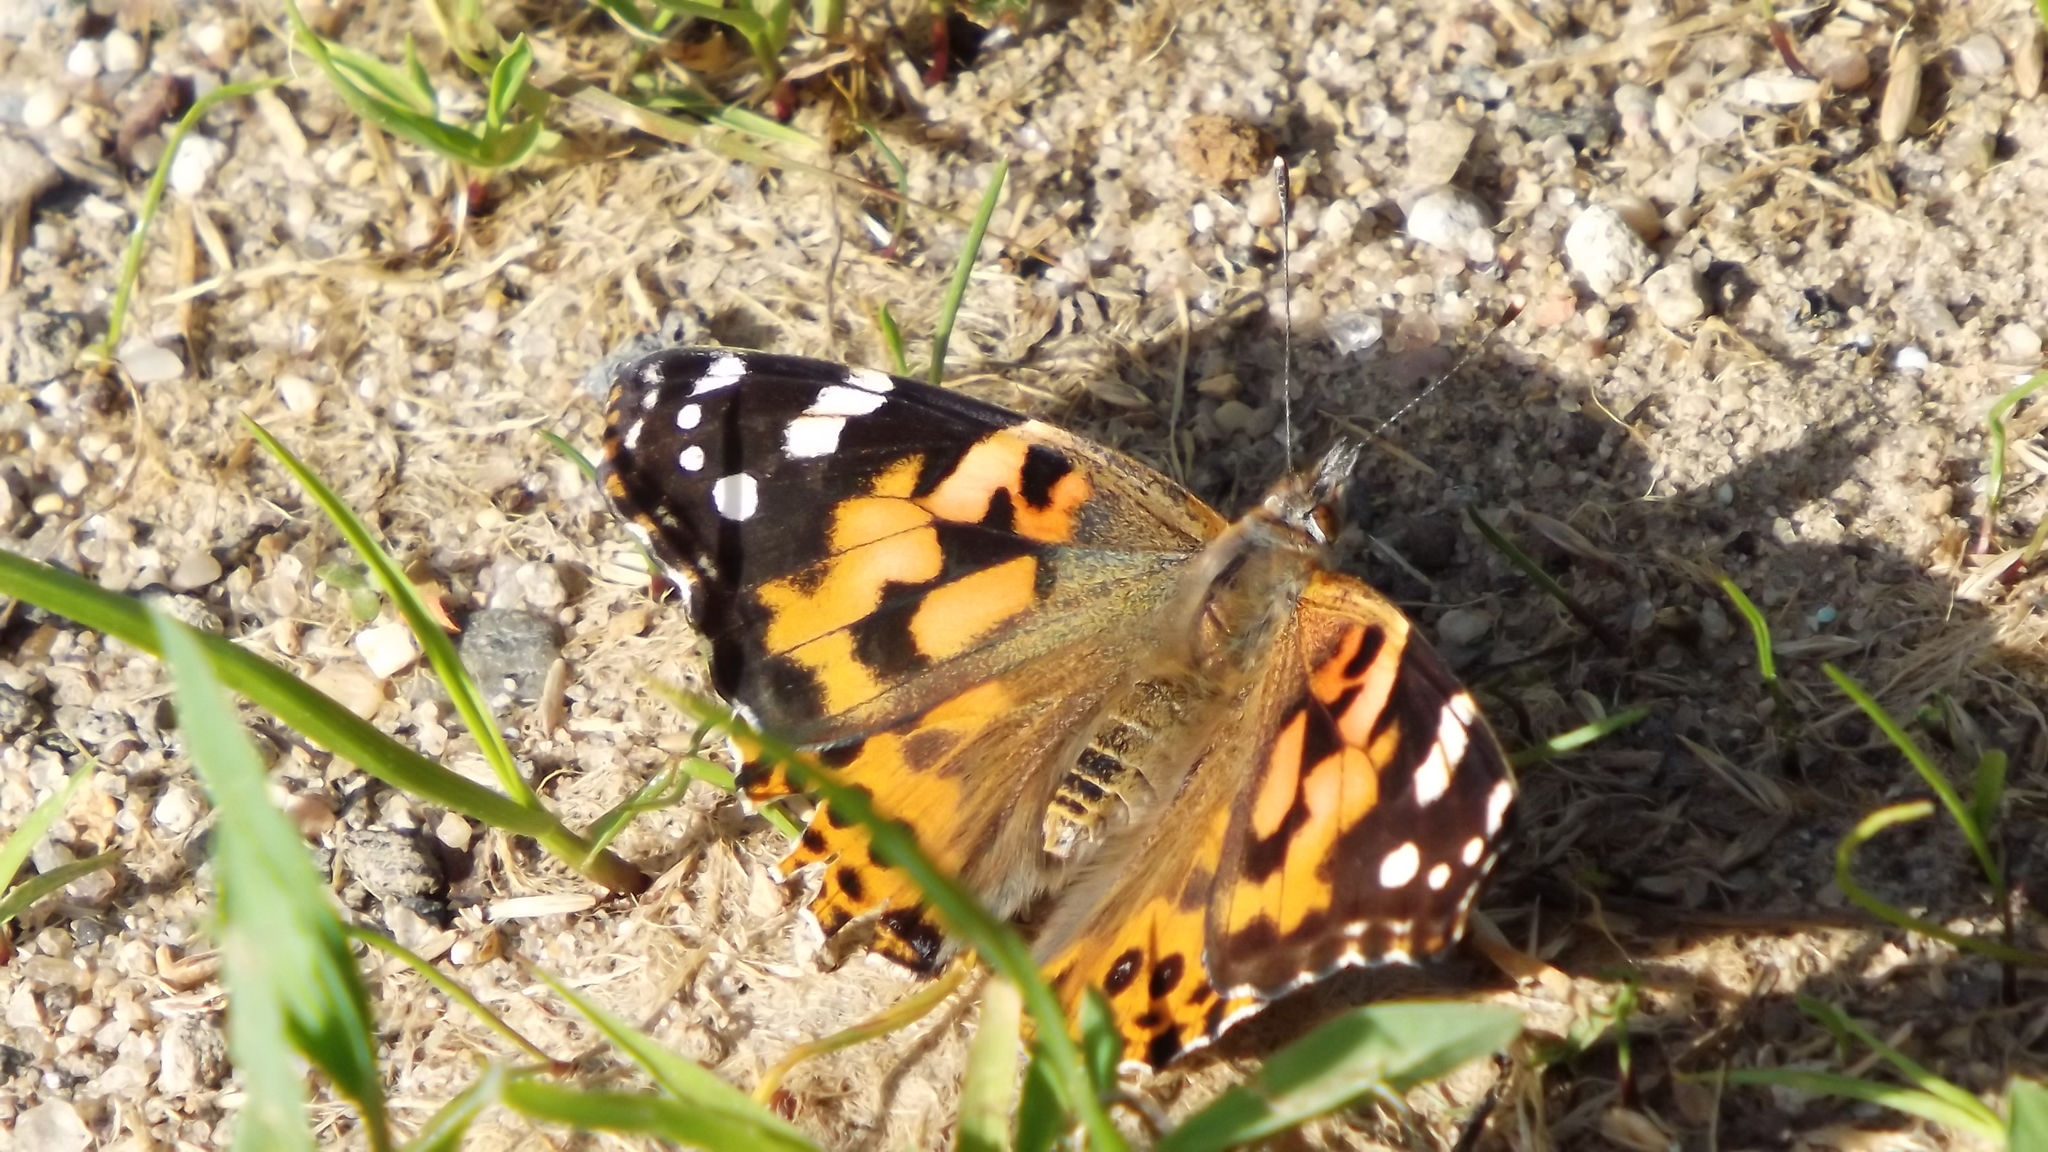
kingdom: Animalia
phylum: Arthropoda
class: Insecta
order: Lepidoptera
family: Nymphalidae
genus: Vanessa
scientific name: Vanessa cardui
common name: Painted lady
